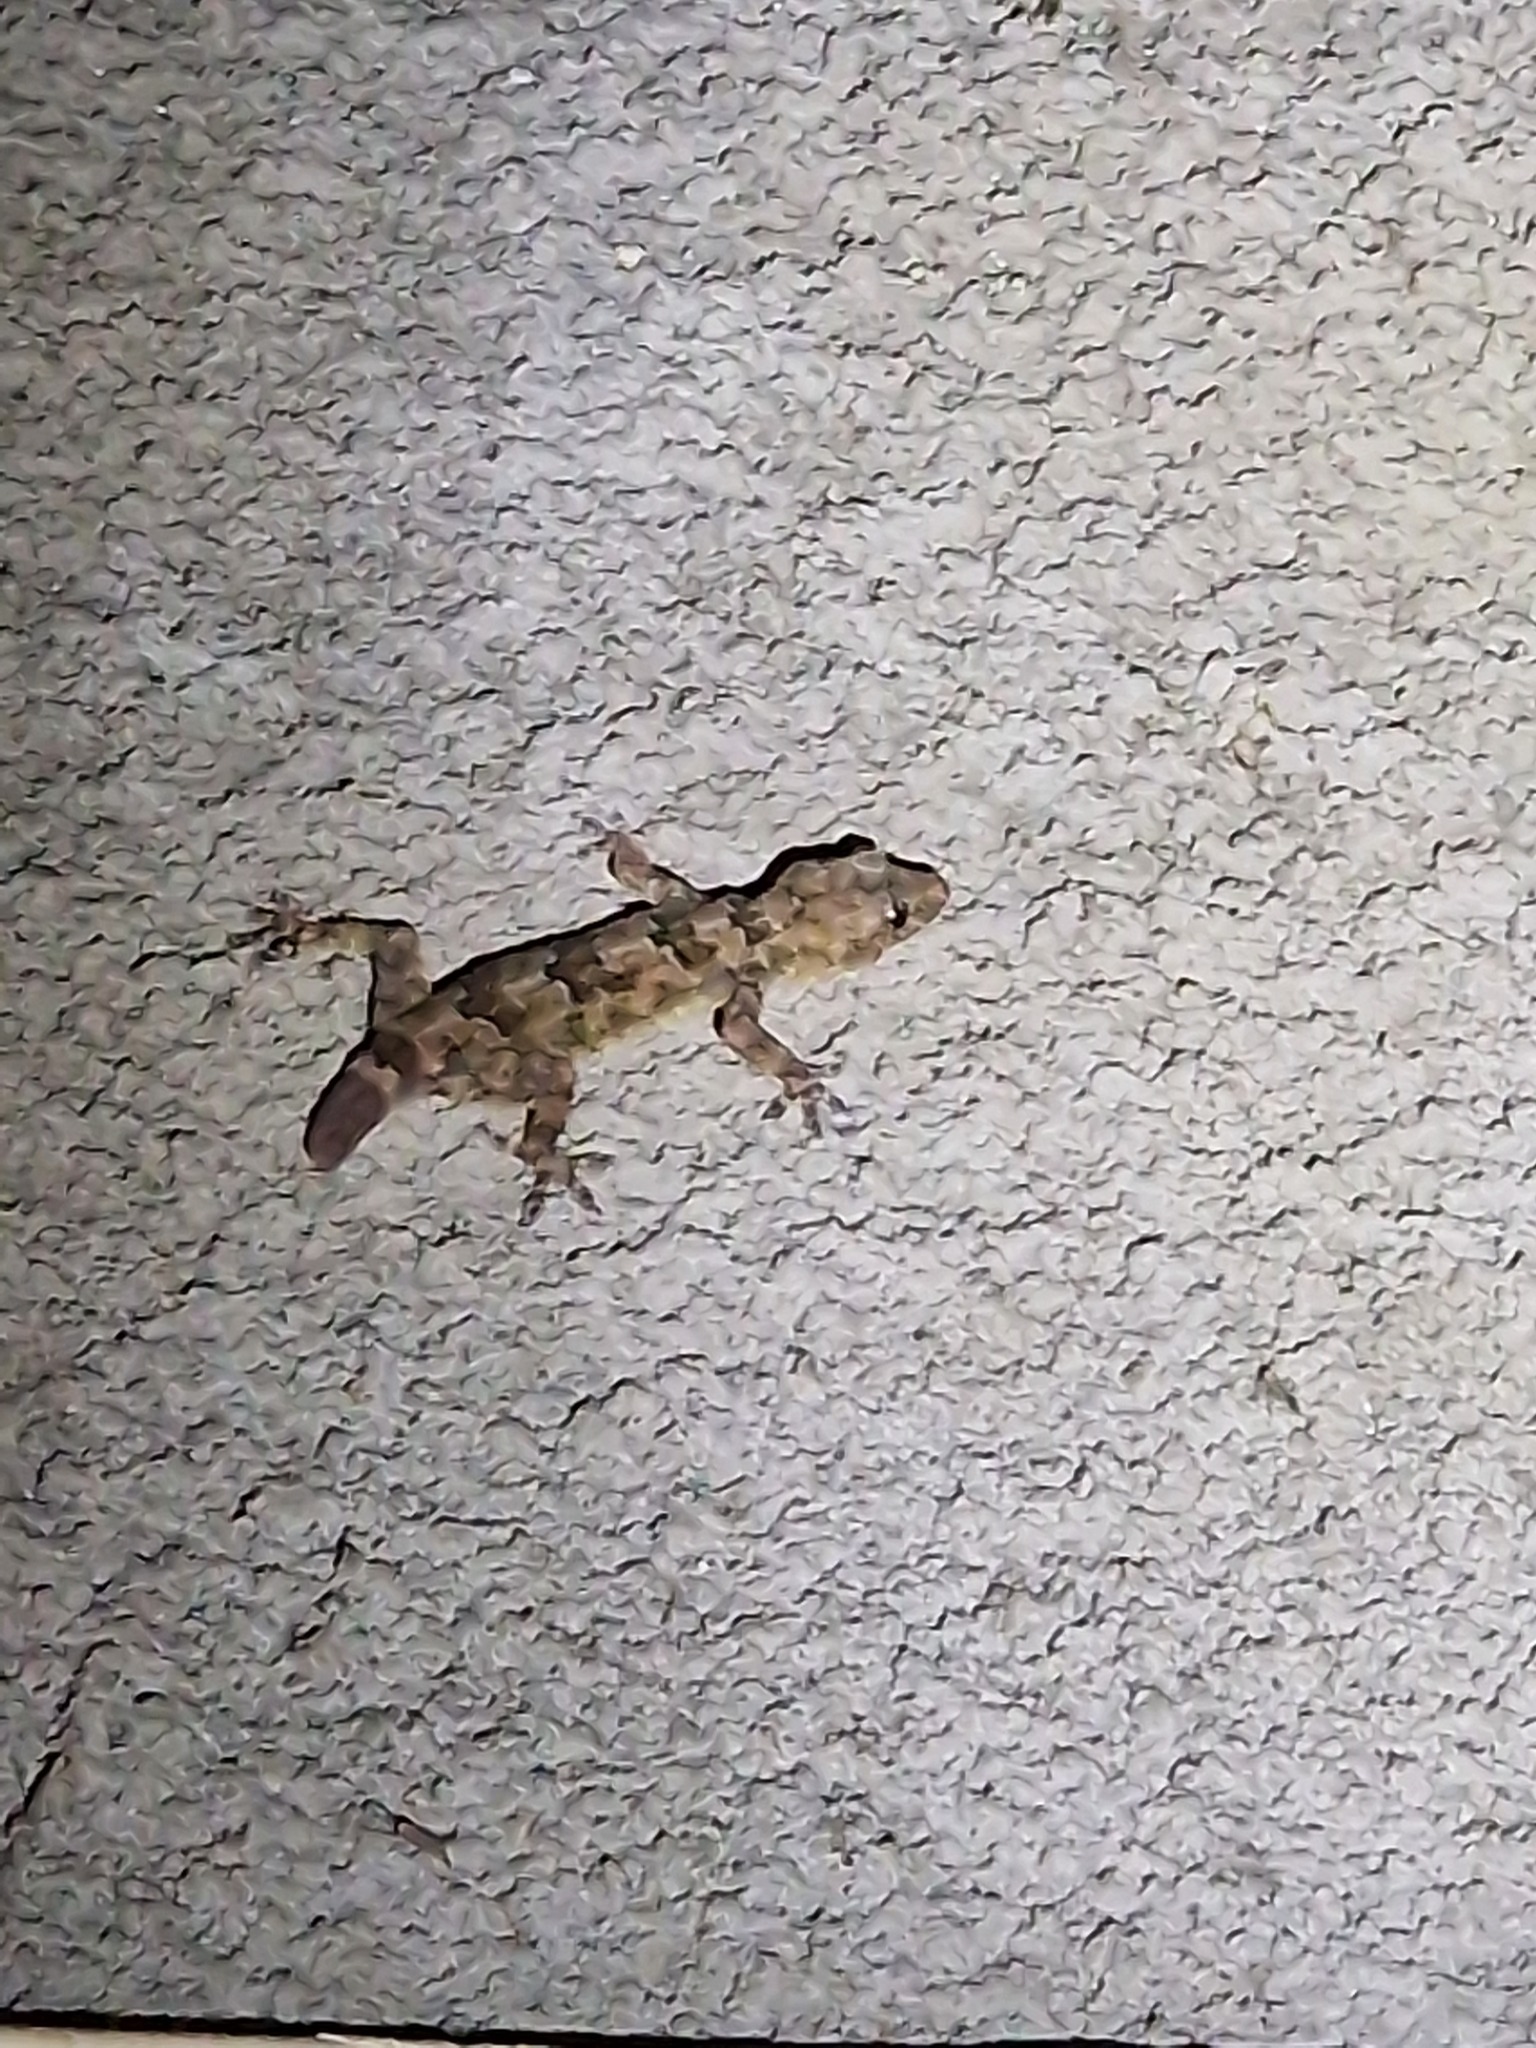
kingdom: Animalia
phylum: Chordata
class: Squamata
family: Gekkonidae
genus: Hemidactylus
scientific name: Hemidactylus mabouia
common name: House gecko
